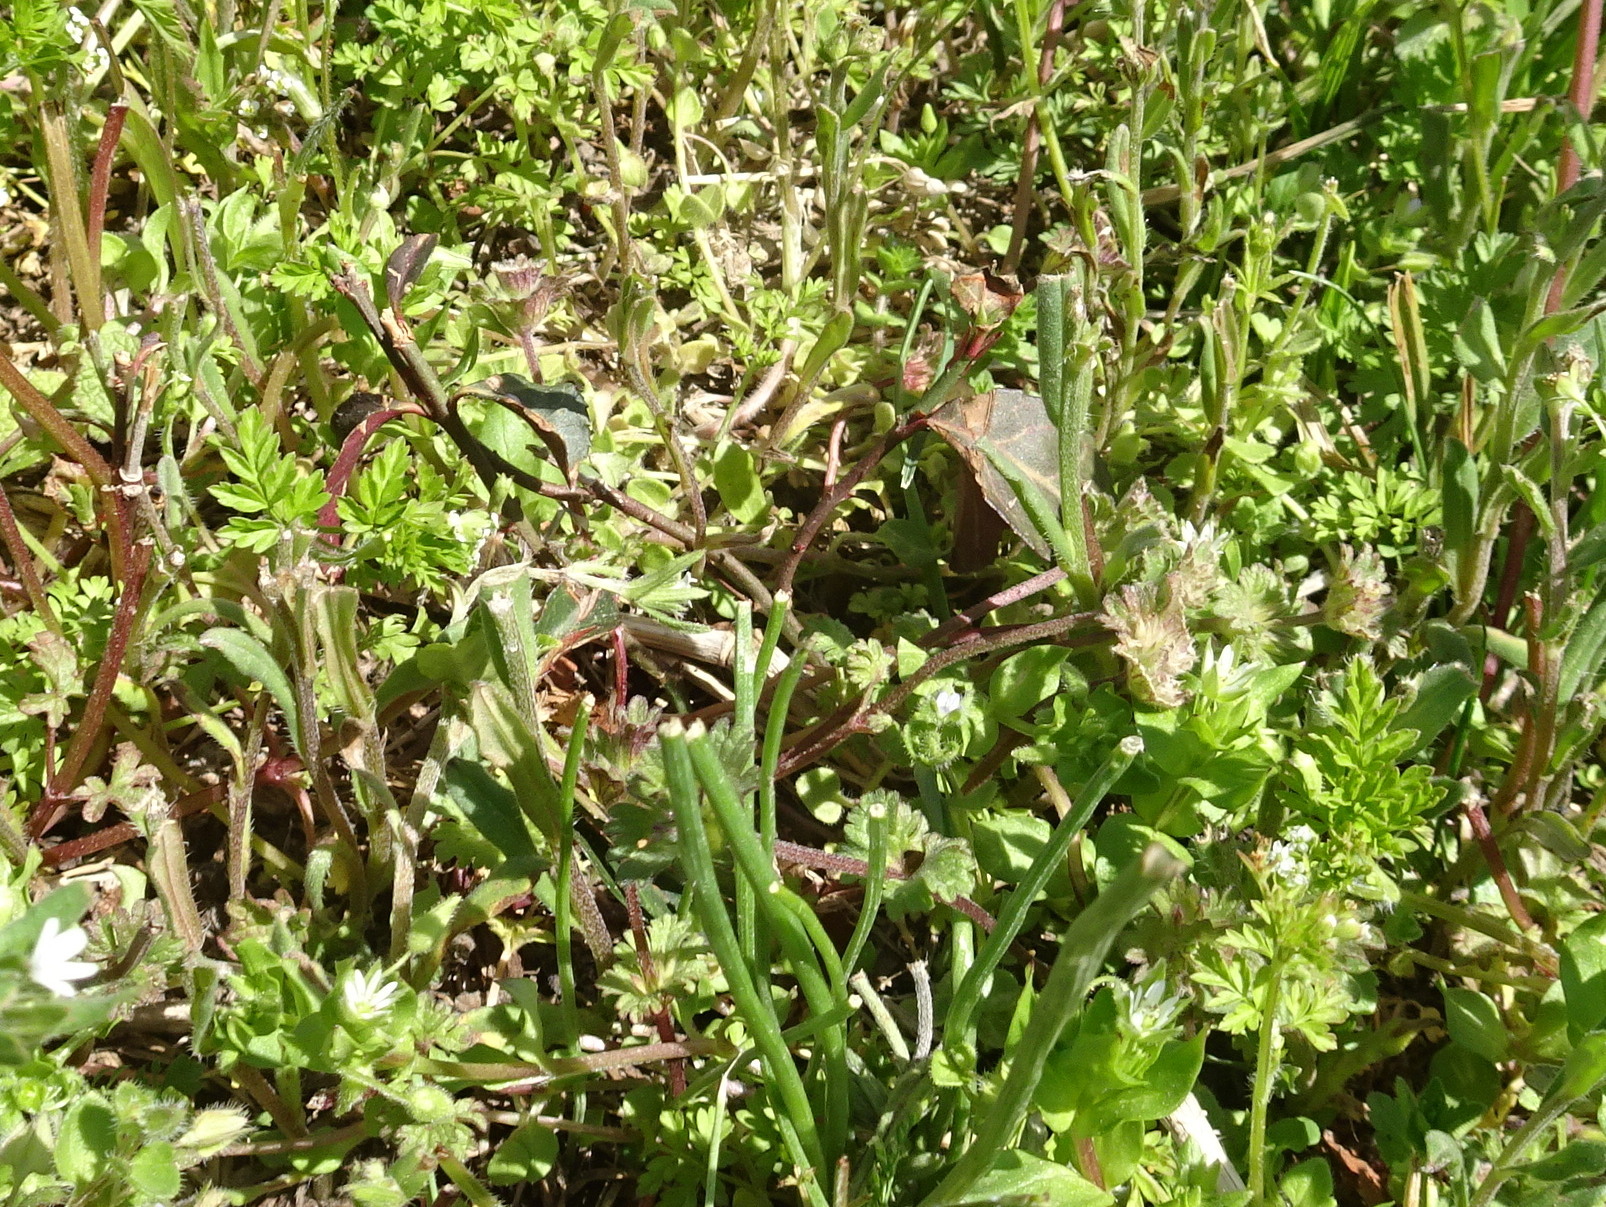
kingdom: Plantae
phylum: Tracheophyta
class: Magnoliopsida
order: Celastrales
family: Celastraceae
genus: Euonymus
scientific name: Euonymus fortunei
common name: Climbing euonymus
